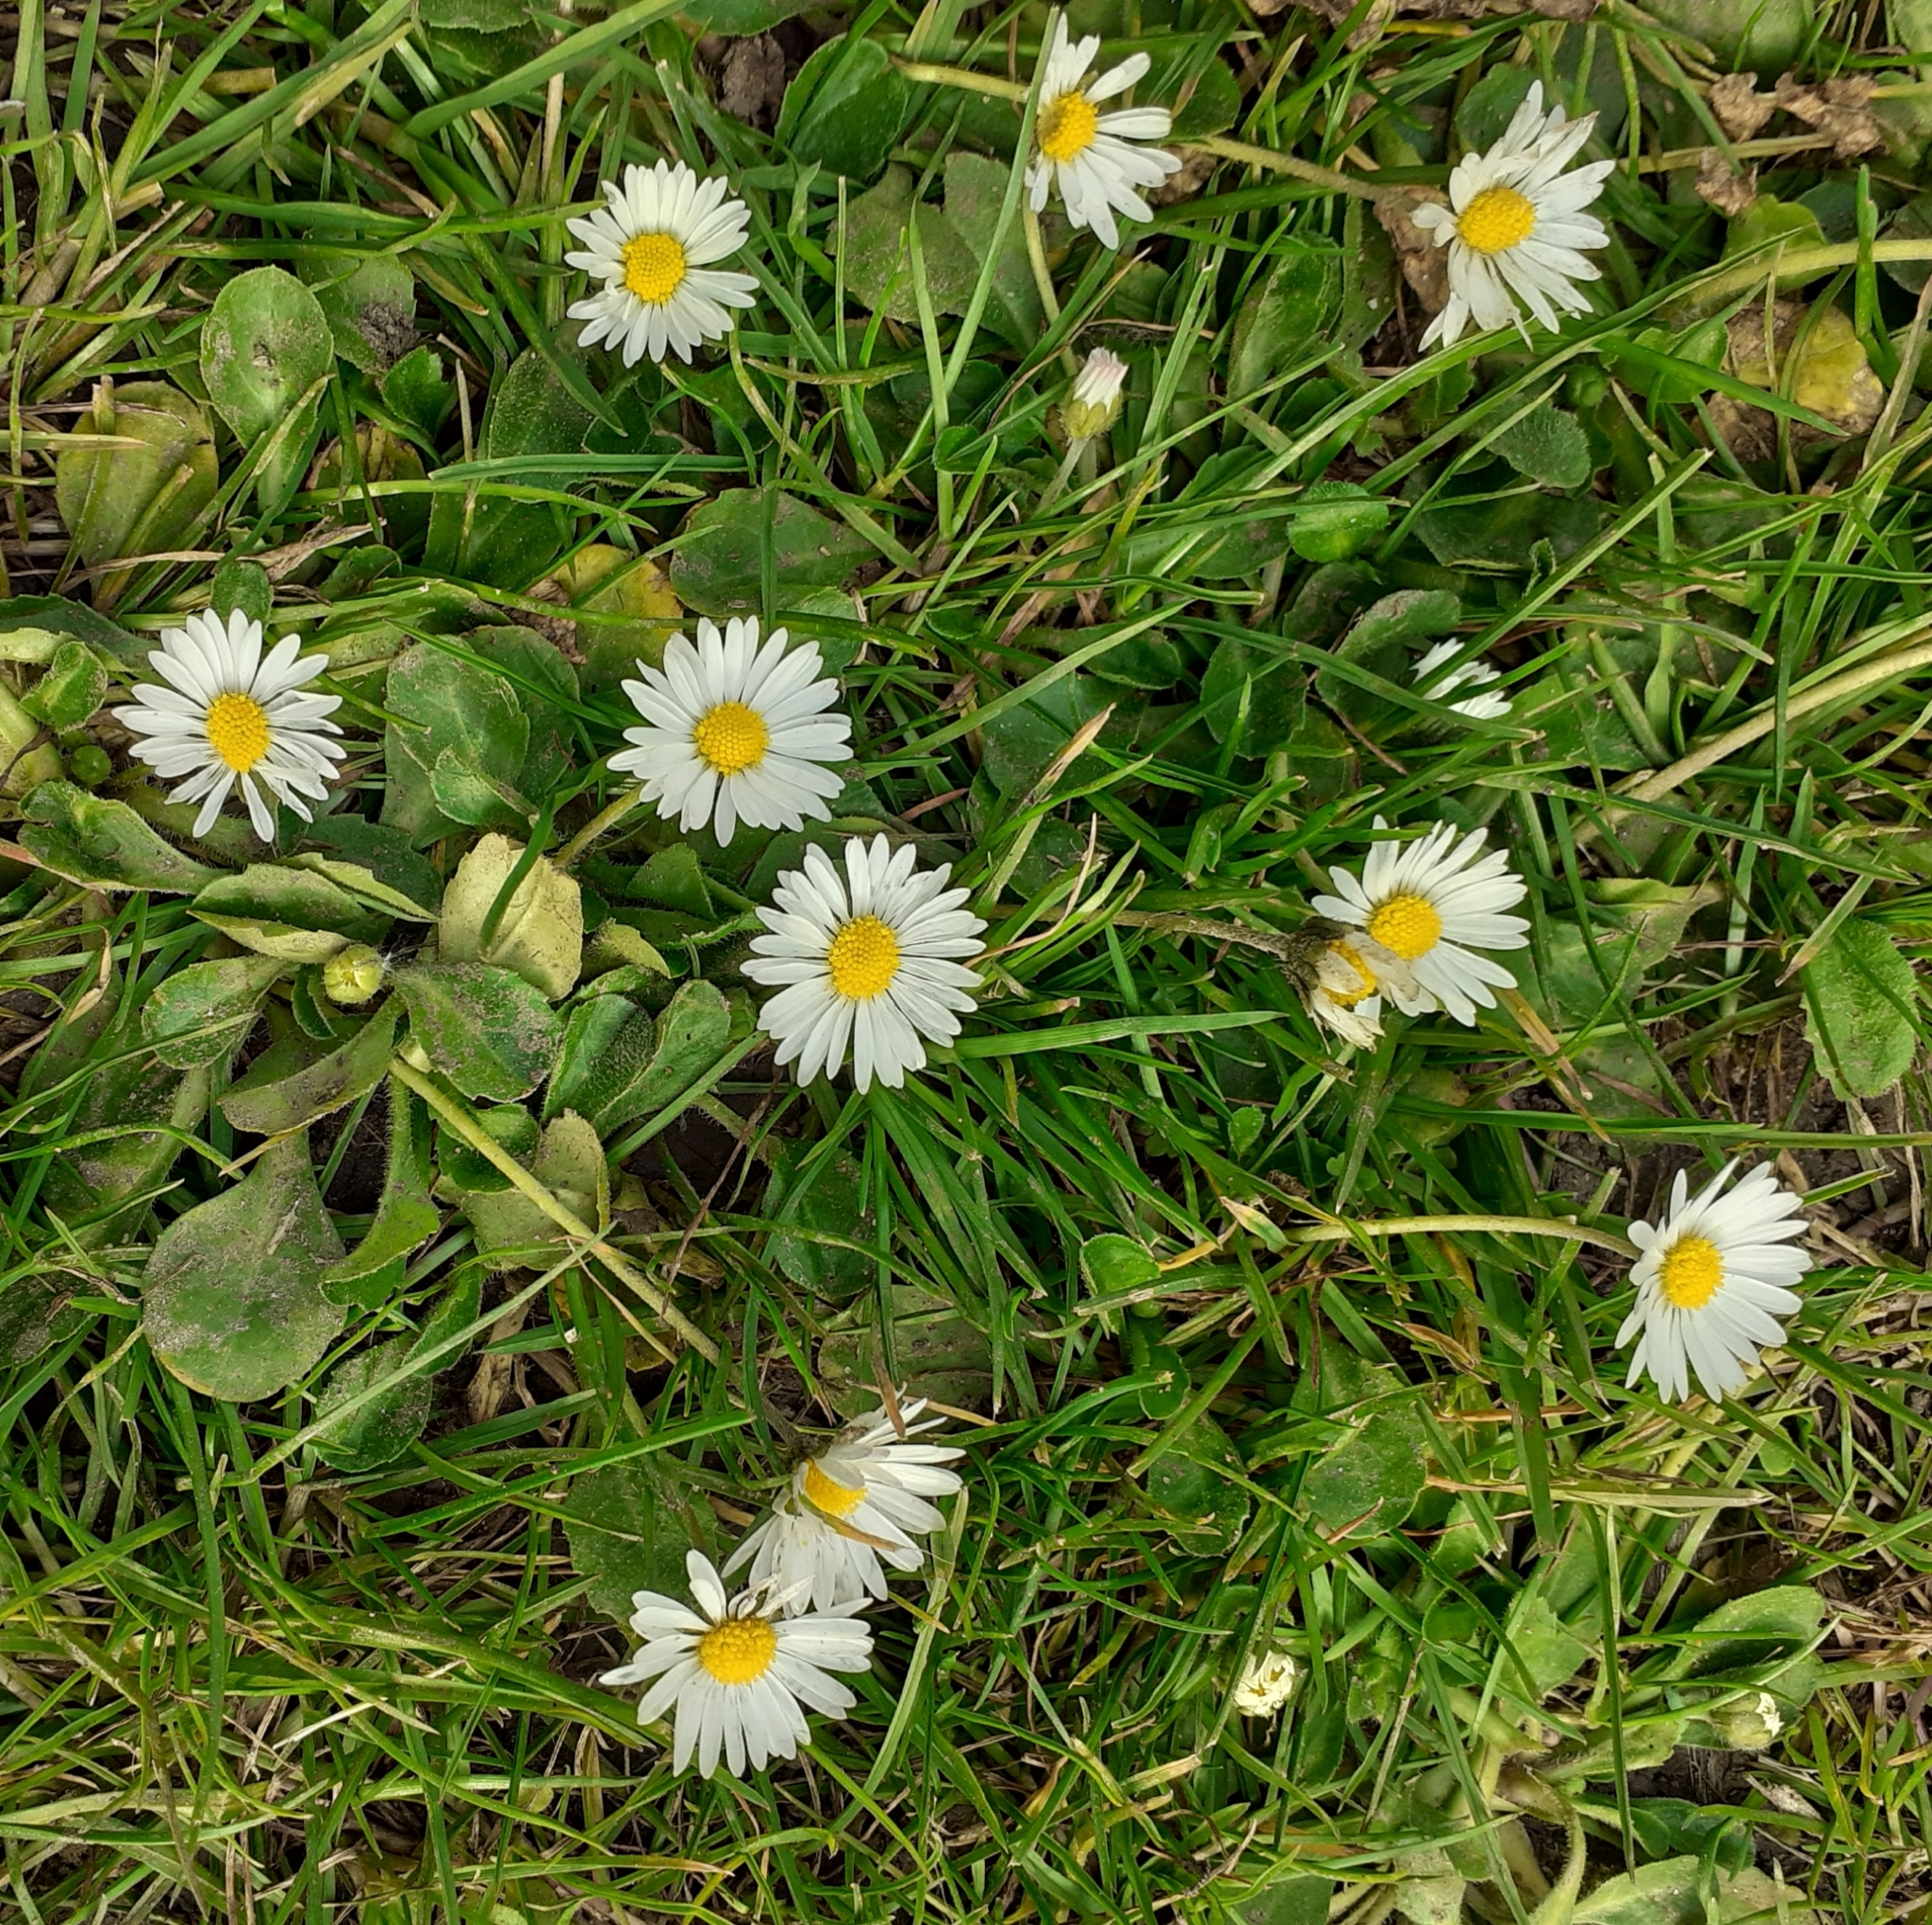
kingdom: Plantae
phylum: Tracheophyta
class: Magnoliopsida
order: Asterales
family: Asteraceae
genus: Bellis
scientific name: Bellis perennis
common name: Lawndaisy
